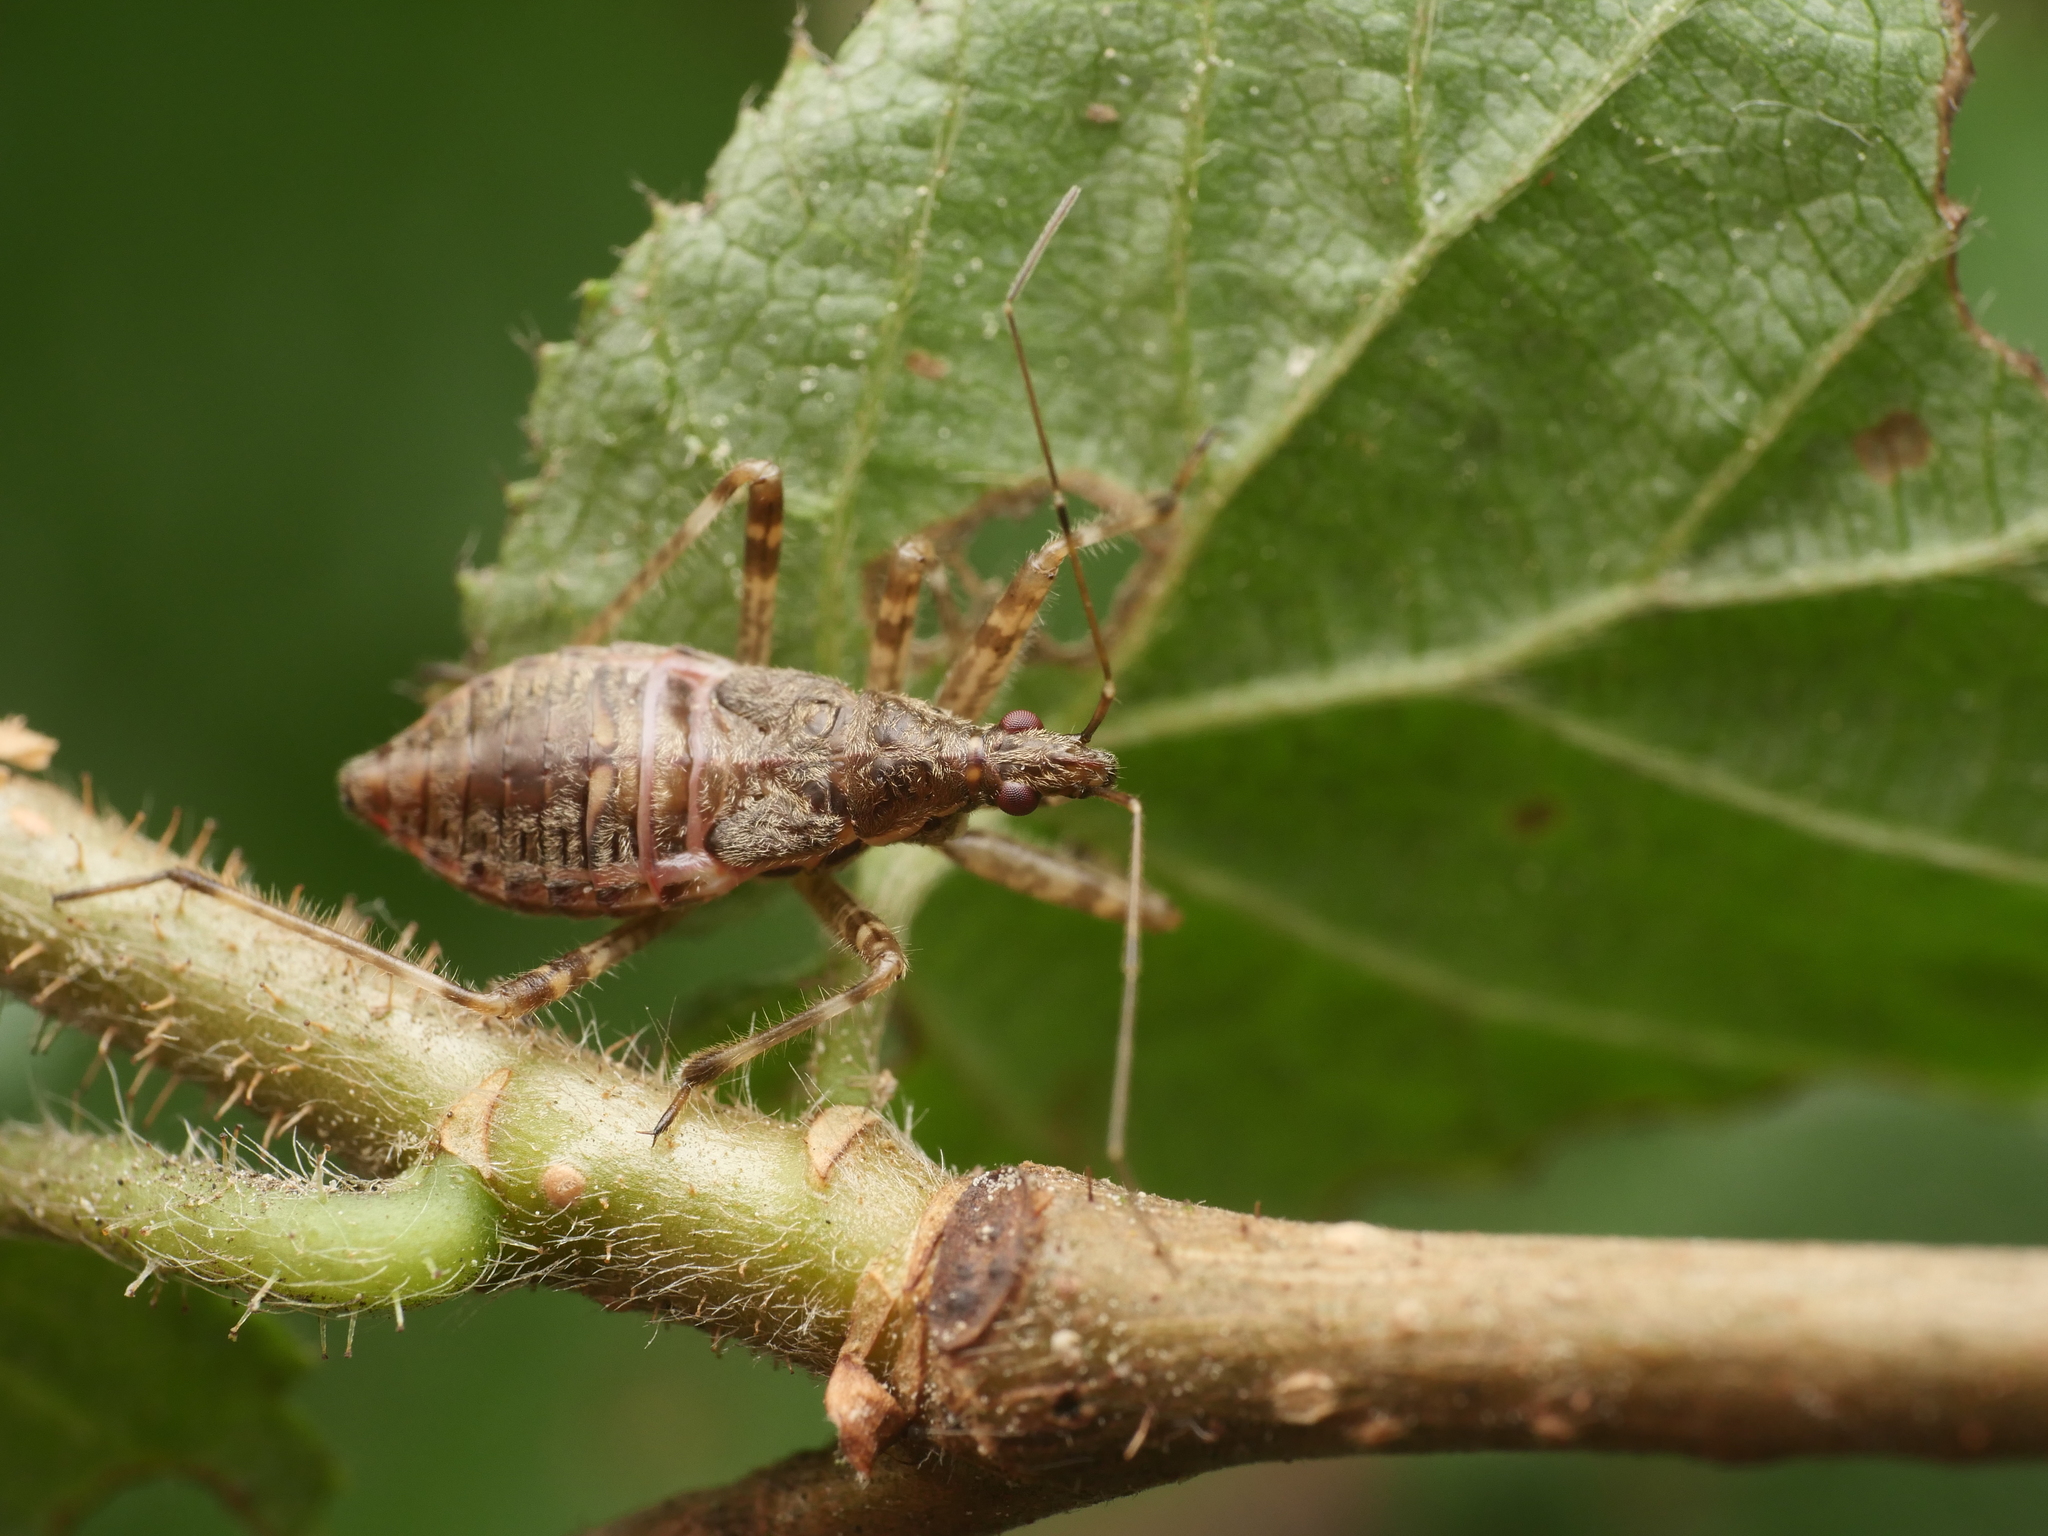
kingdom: Animalia
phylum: Arthropoda
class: Insecta
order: Hemiptera
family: Nabidae
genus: Himacerus
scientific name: Himacerus apterus
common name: Tree damsel bug
